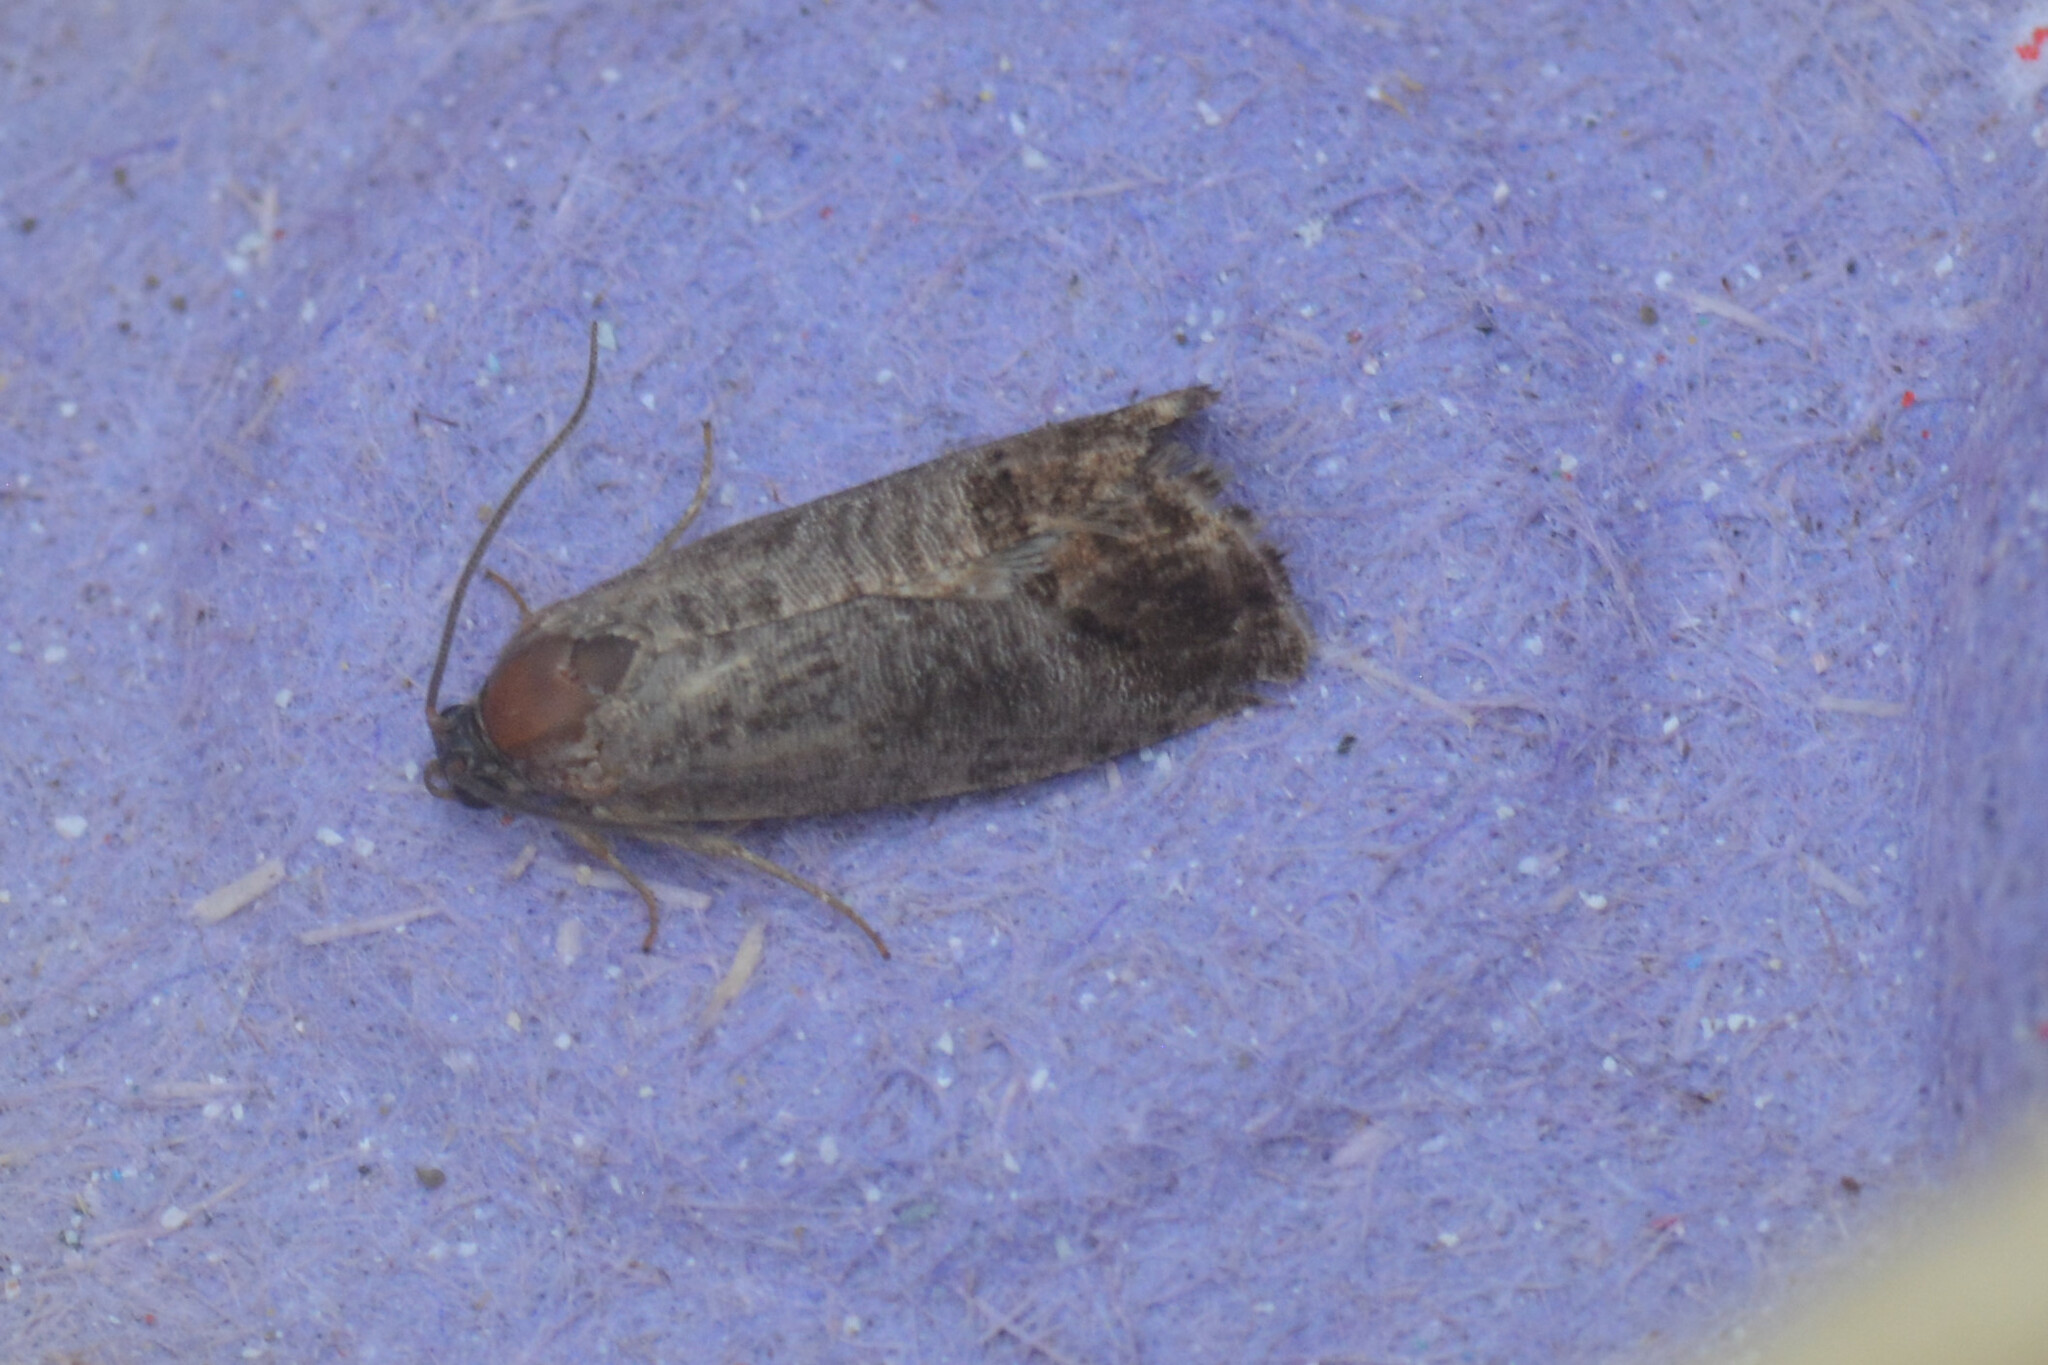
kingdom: Animalia
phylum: Arthropoda
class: Insecta
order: Lepidoptera
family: Tortricidae
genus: Cydia
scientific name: Cydia pomonella
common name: Codling moth
